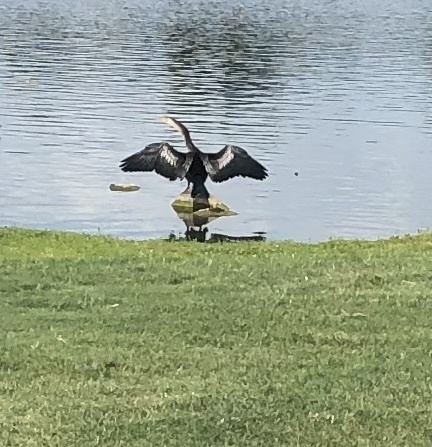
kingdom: Animalia
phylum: Chordata
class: Aves
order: Suliformes
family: Anhingidae
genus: Anhinga
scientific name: Anhinga anhinga
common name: Anhinga
